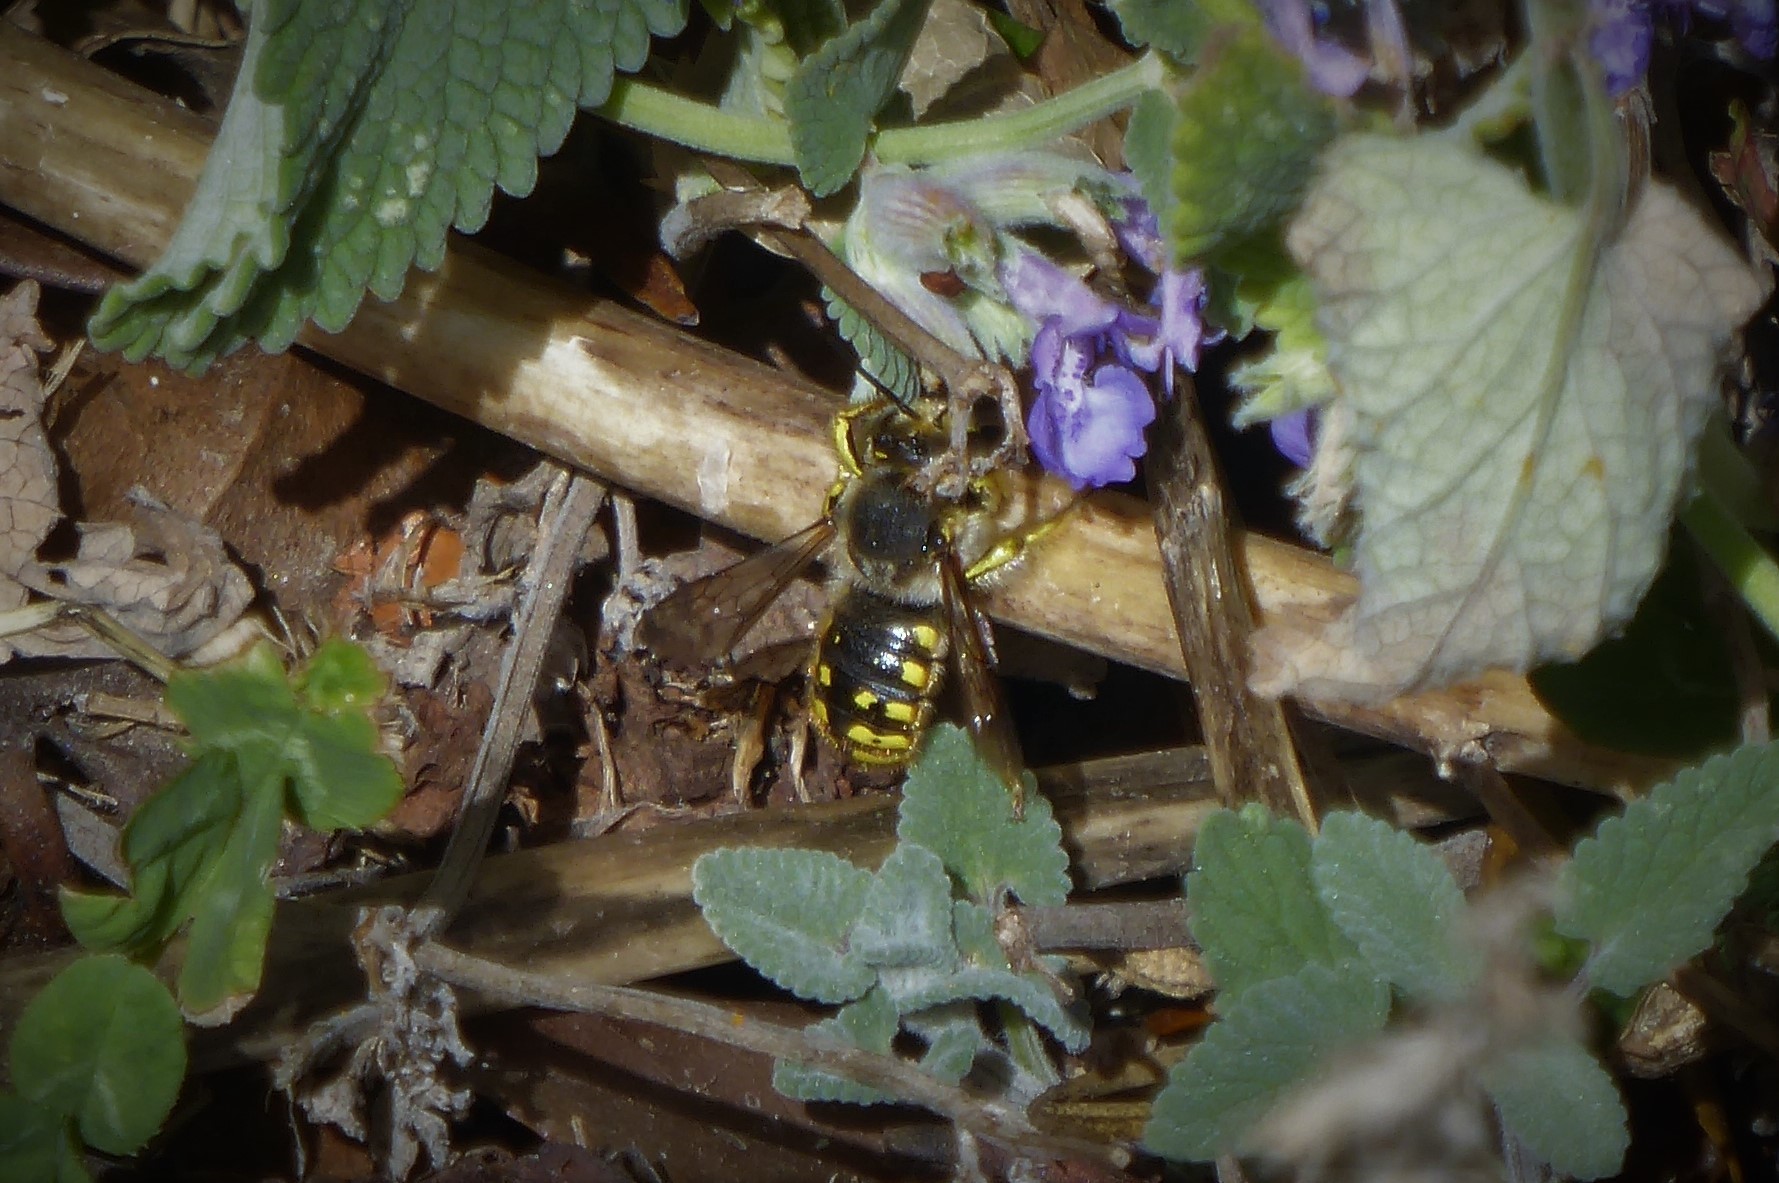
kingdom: Animalia
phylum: Arthropoda
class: Insecta
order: Hymenoptera
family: Megachilidae
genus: Anthidium
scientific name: Anthidium manicatum
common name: Wool carder bee
